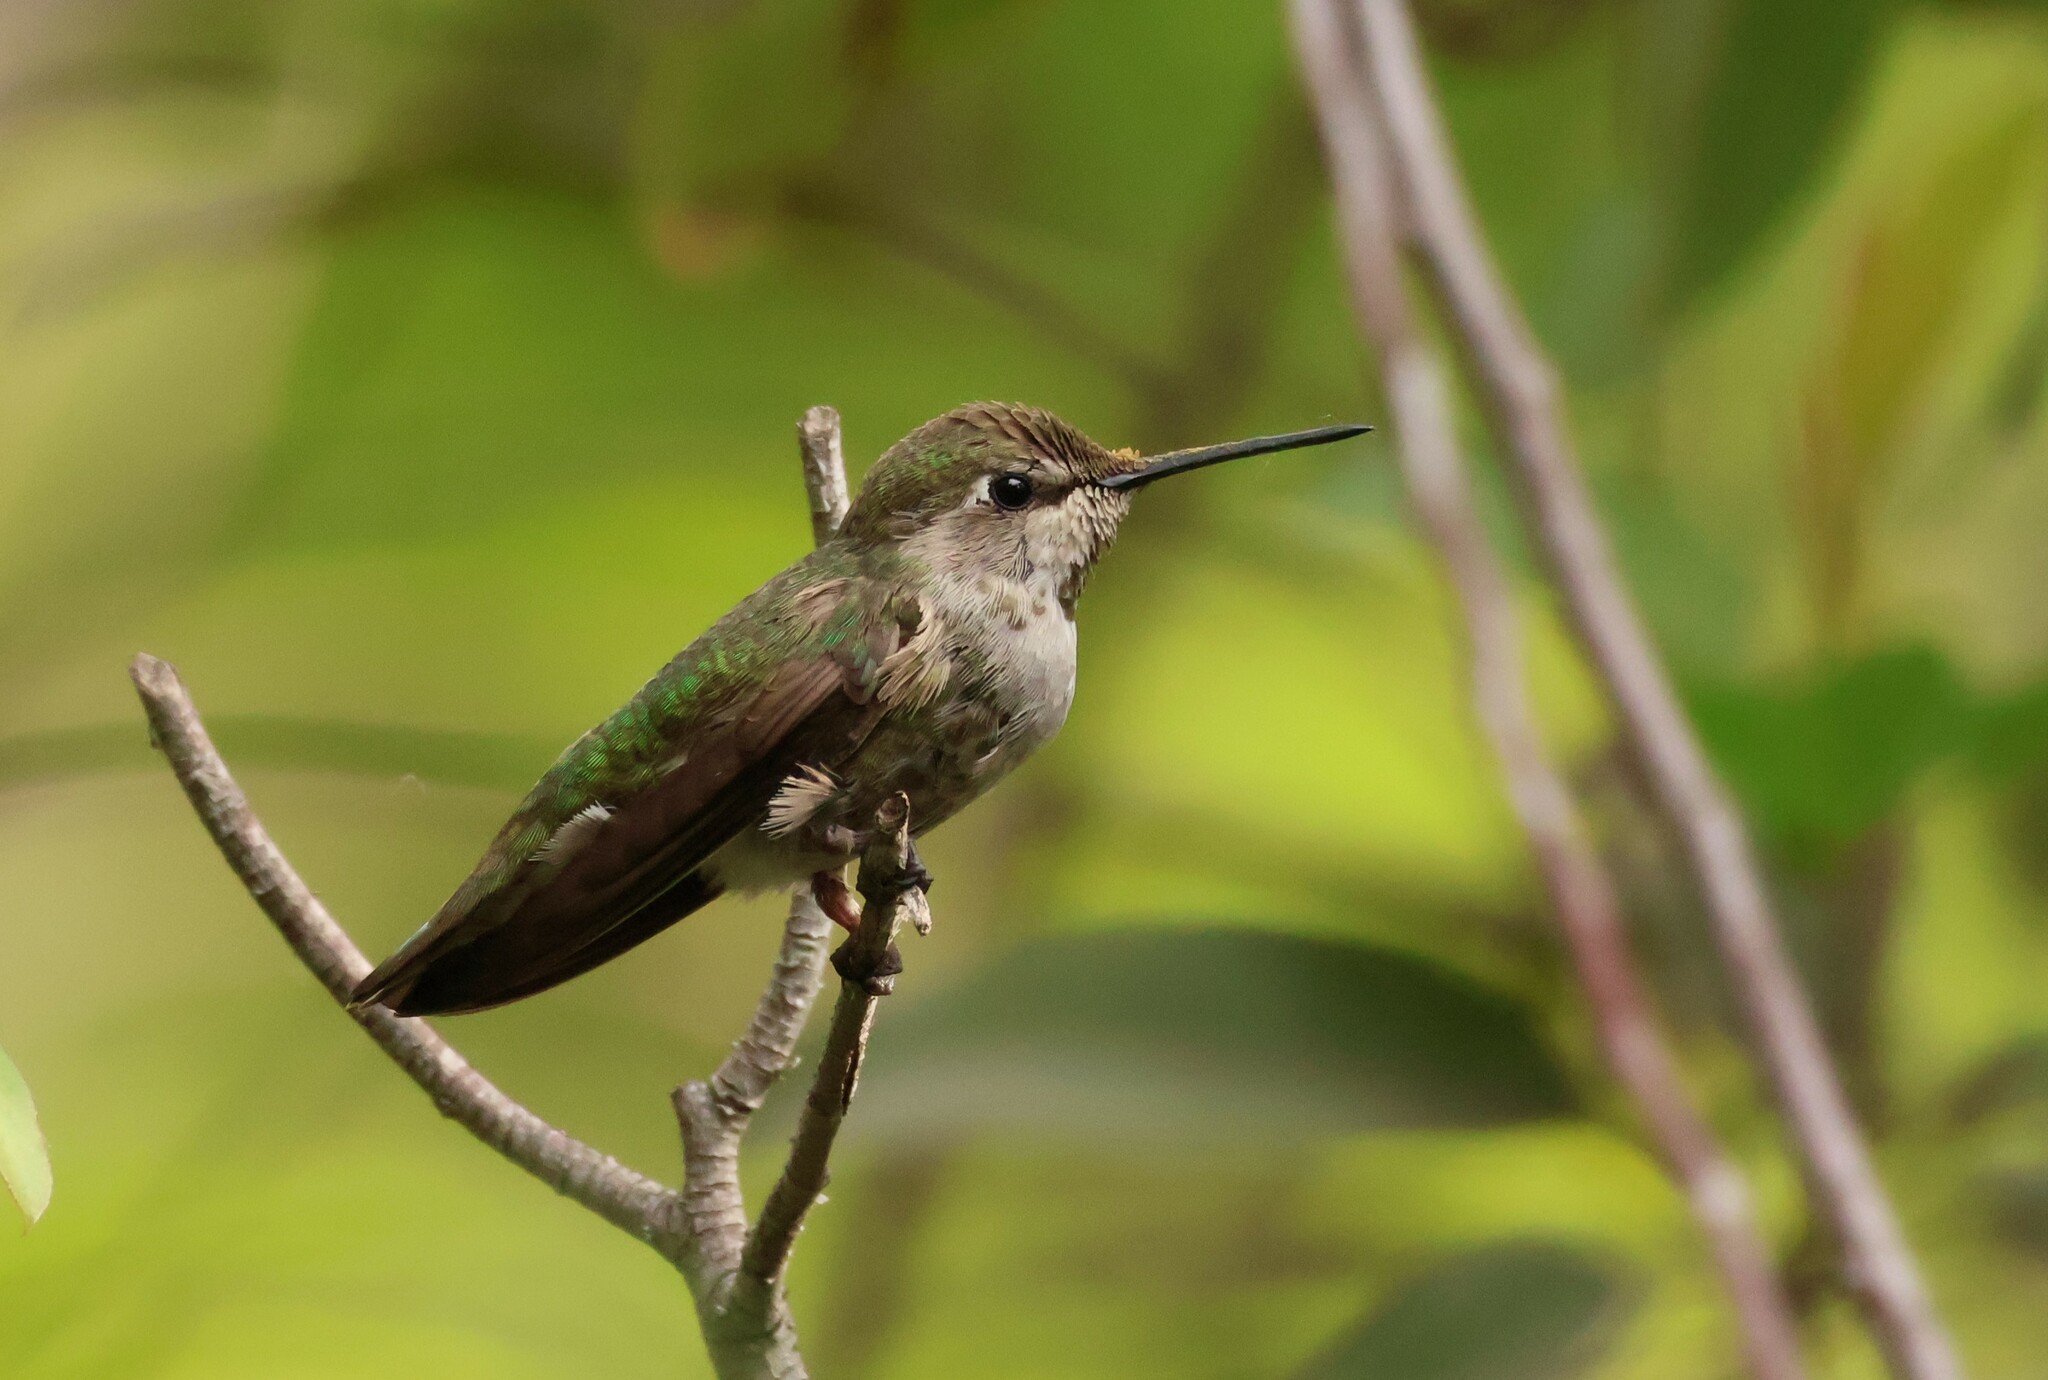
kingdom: Animalia
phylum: Chordata
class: Aves
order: Apodiformes
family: Trochilidae
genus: Calypte
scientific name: Calypte anna
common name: Anna's hummingbird
